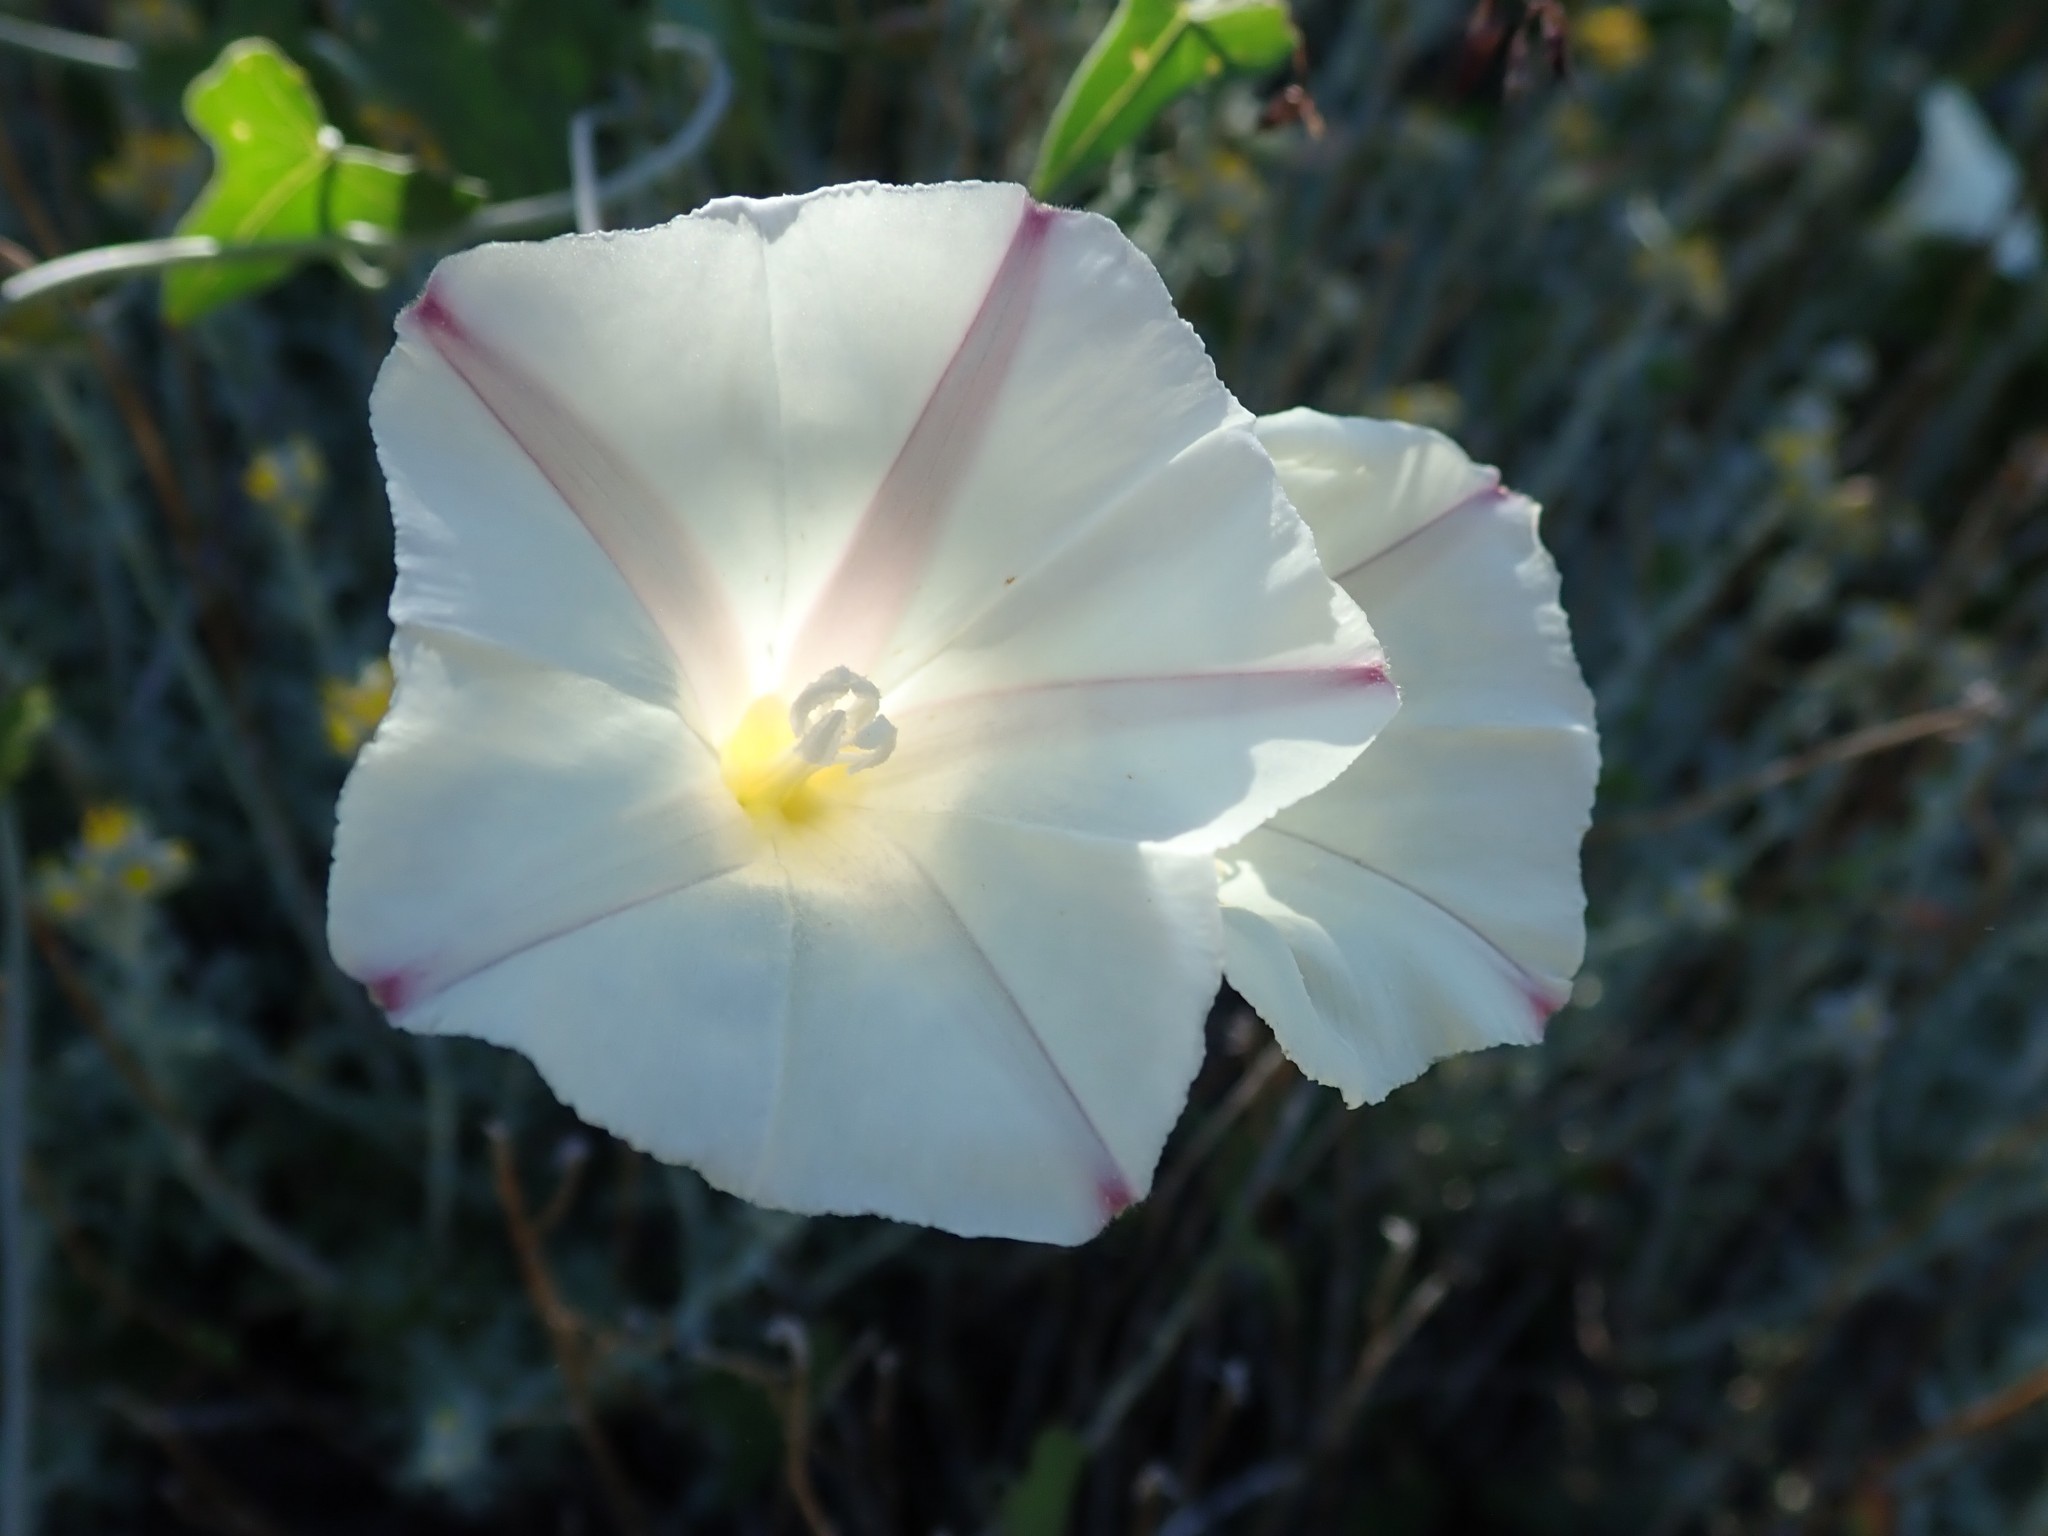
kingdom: Plantae
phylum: Tracheophyta
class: Magnoliopsida
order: Solanales
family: Convolvulaceae
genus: Calystegia
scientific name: Calystegia purpurata
